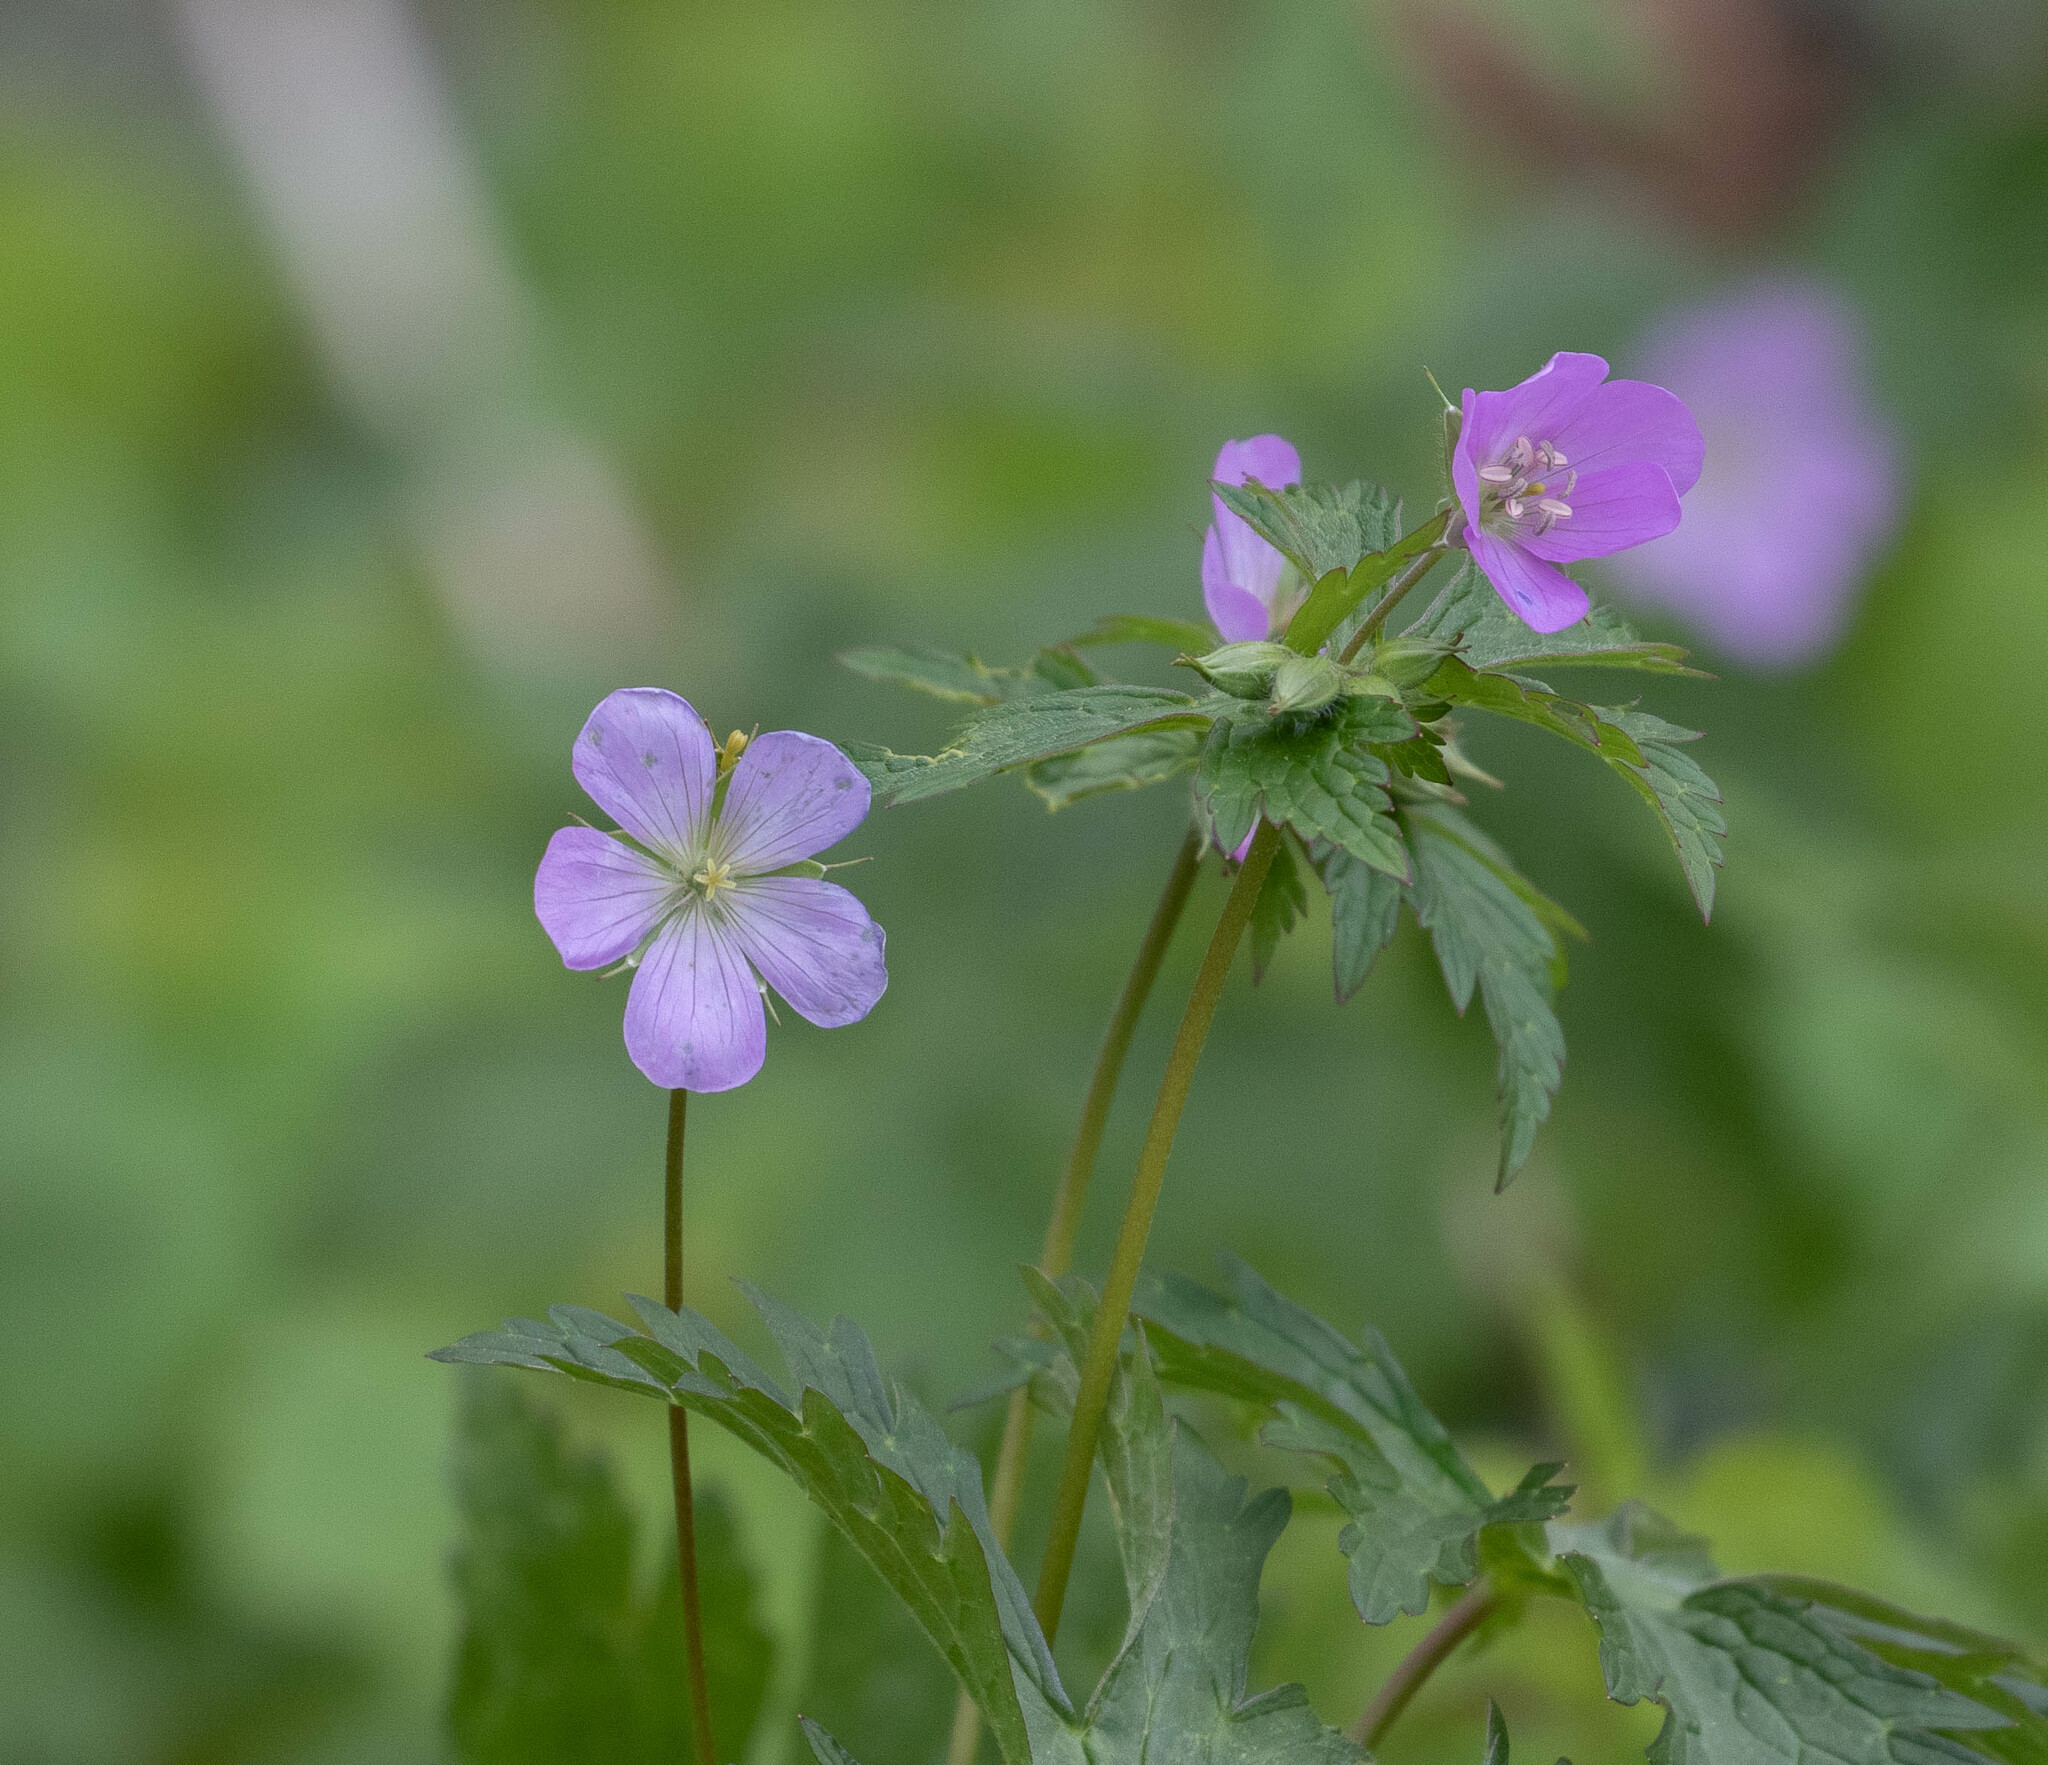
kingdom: Plantae
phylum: Tracheophyta
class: Magnoliopsida
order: Geraniales
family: Geraniaceae
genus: Geranium
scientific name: Geranium maculatum
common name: Spotted geranium
